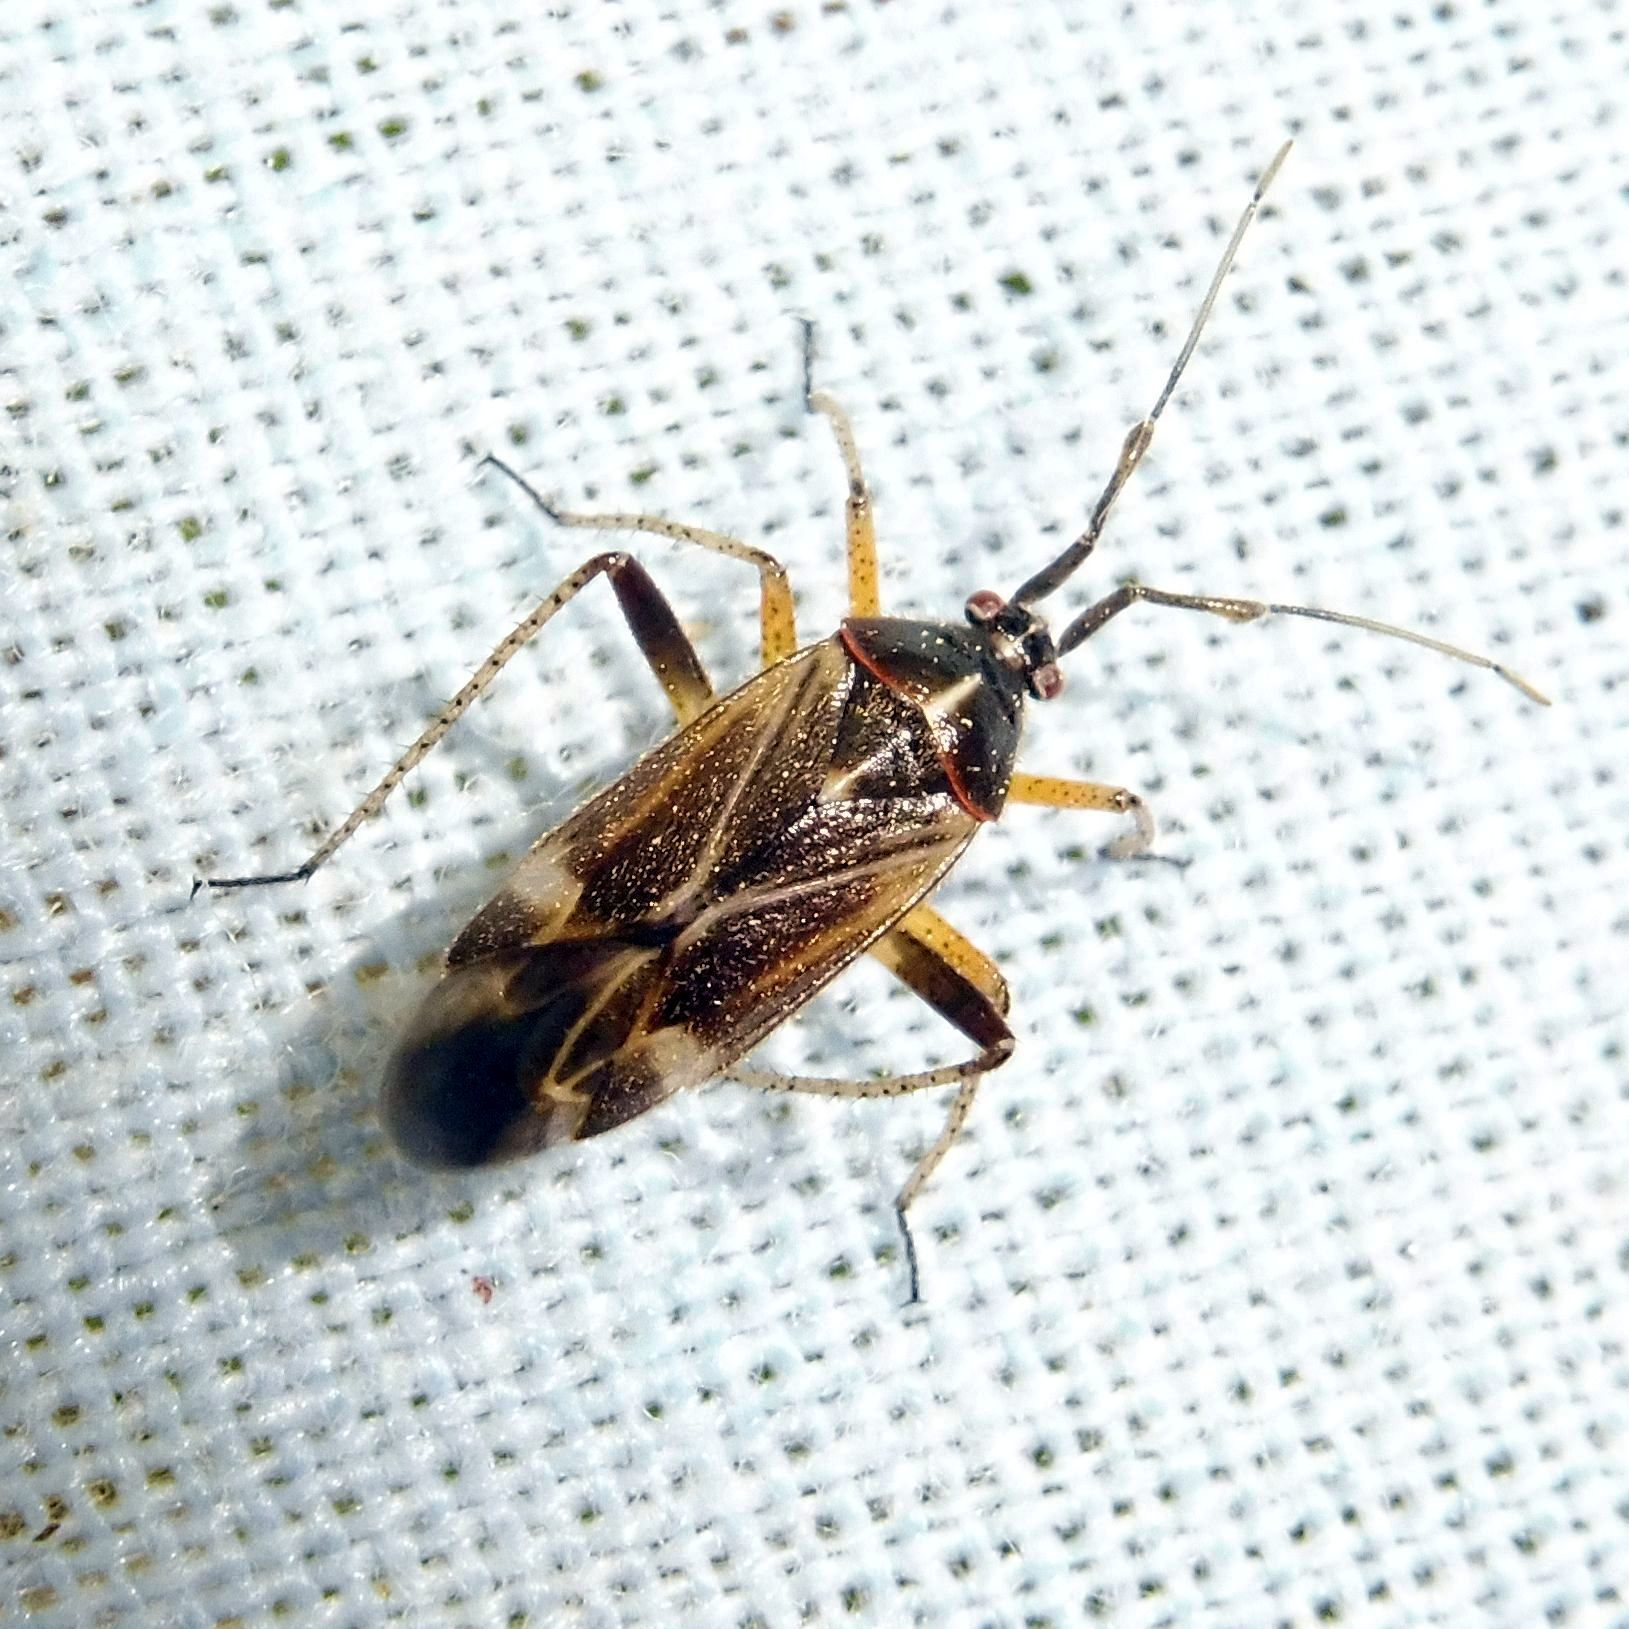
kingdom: Animalia
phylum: Arthropoda
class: Insecta
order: Hemiptera
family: Miridae
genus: Harpocera
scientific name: Harpocera thoracica
